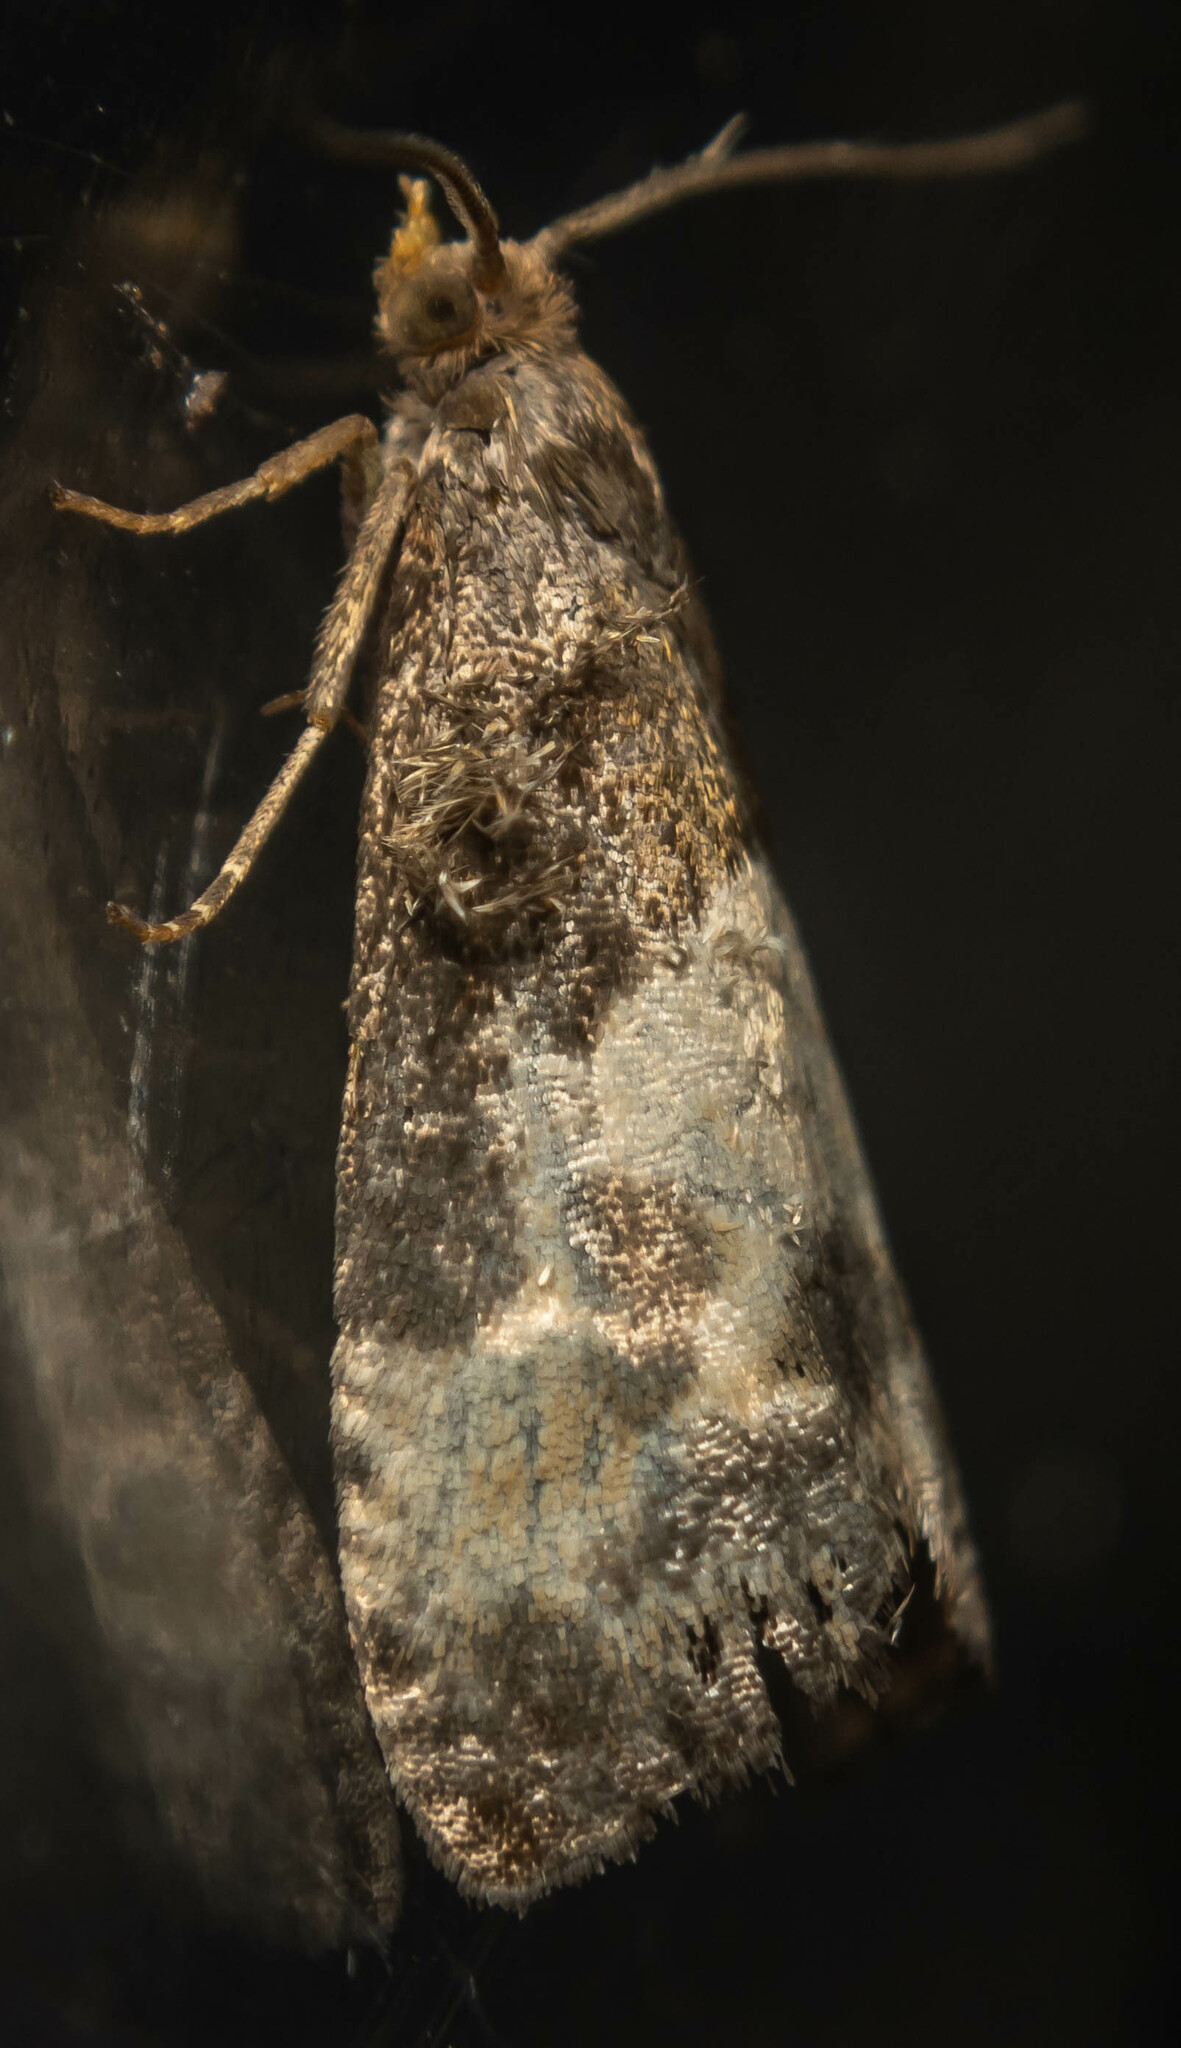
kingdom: Animalia
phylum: Arthropoda
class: Insecta
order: Lepidoptera
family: Tortricidae
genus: Notocelia
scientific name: Notocelia cynosbatella
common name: Yellow-faced bell moth
